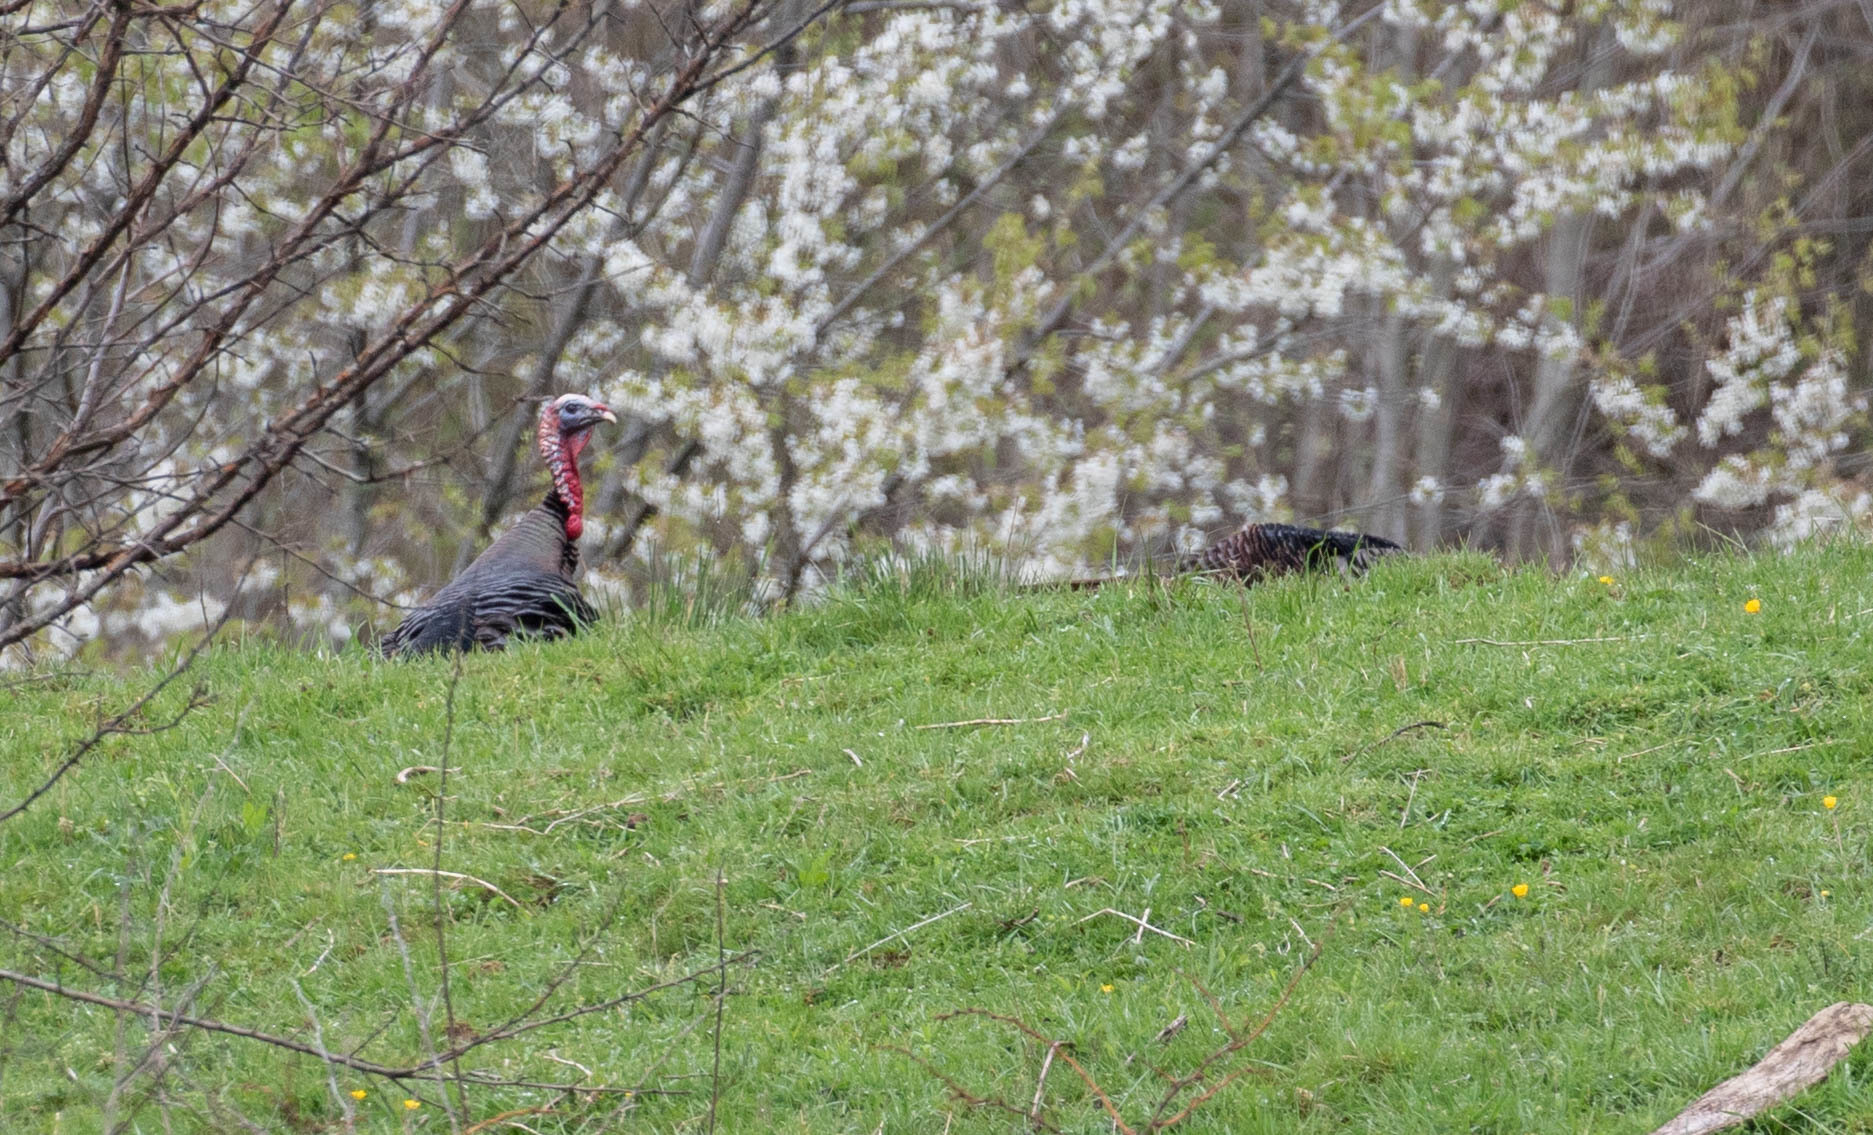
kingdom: Animalia
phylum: Chordata
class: Aves
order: Galliformes
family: Phasianidae
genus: Meleagris
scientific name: Meleagris gallopavo
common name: Wild turkey
